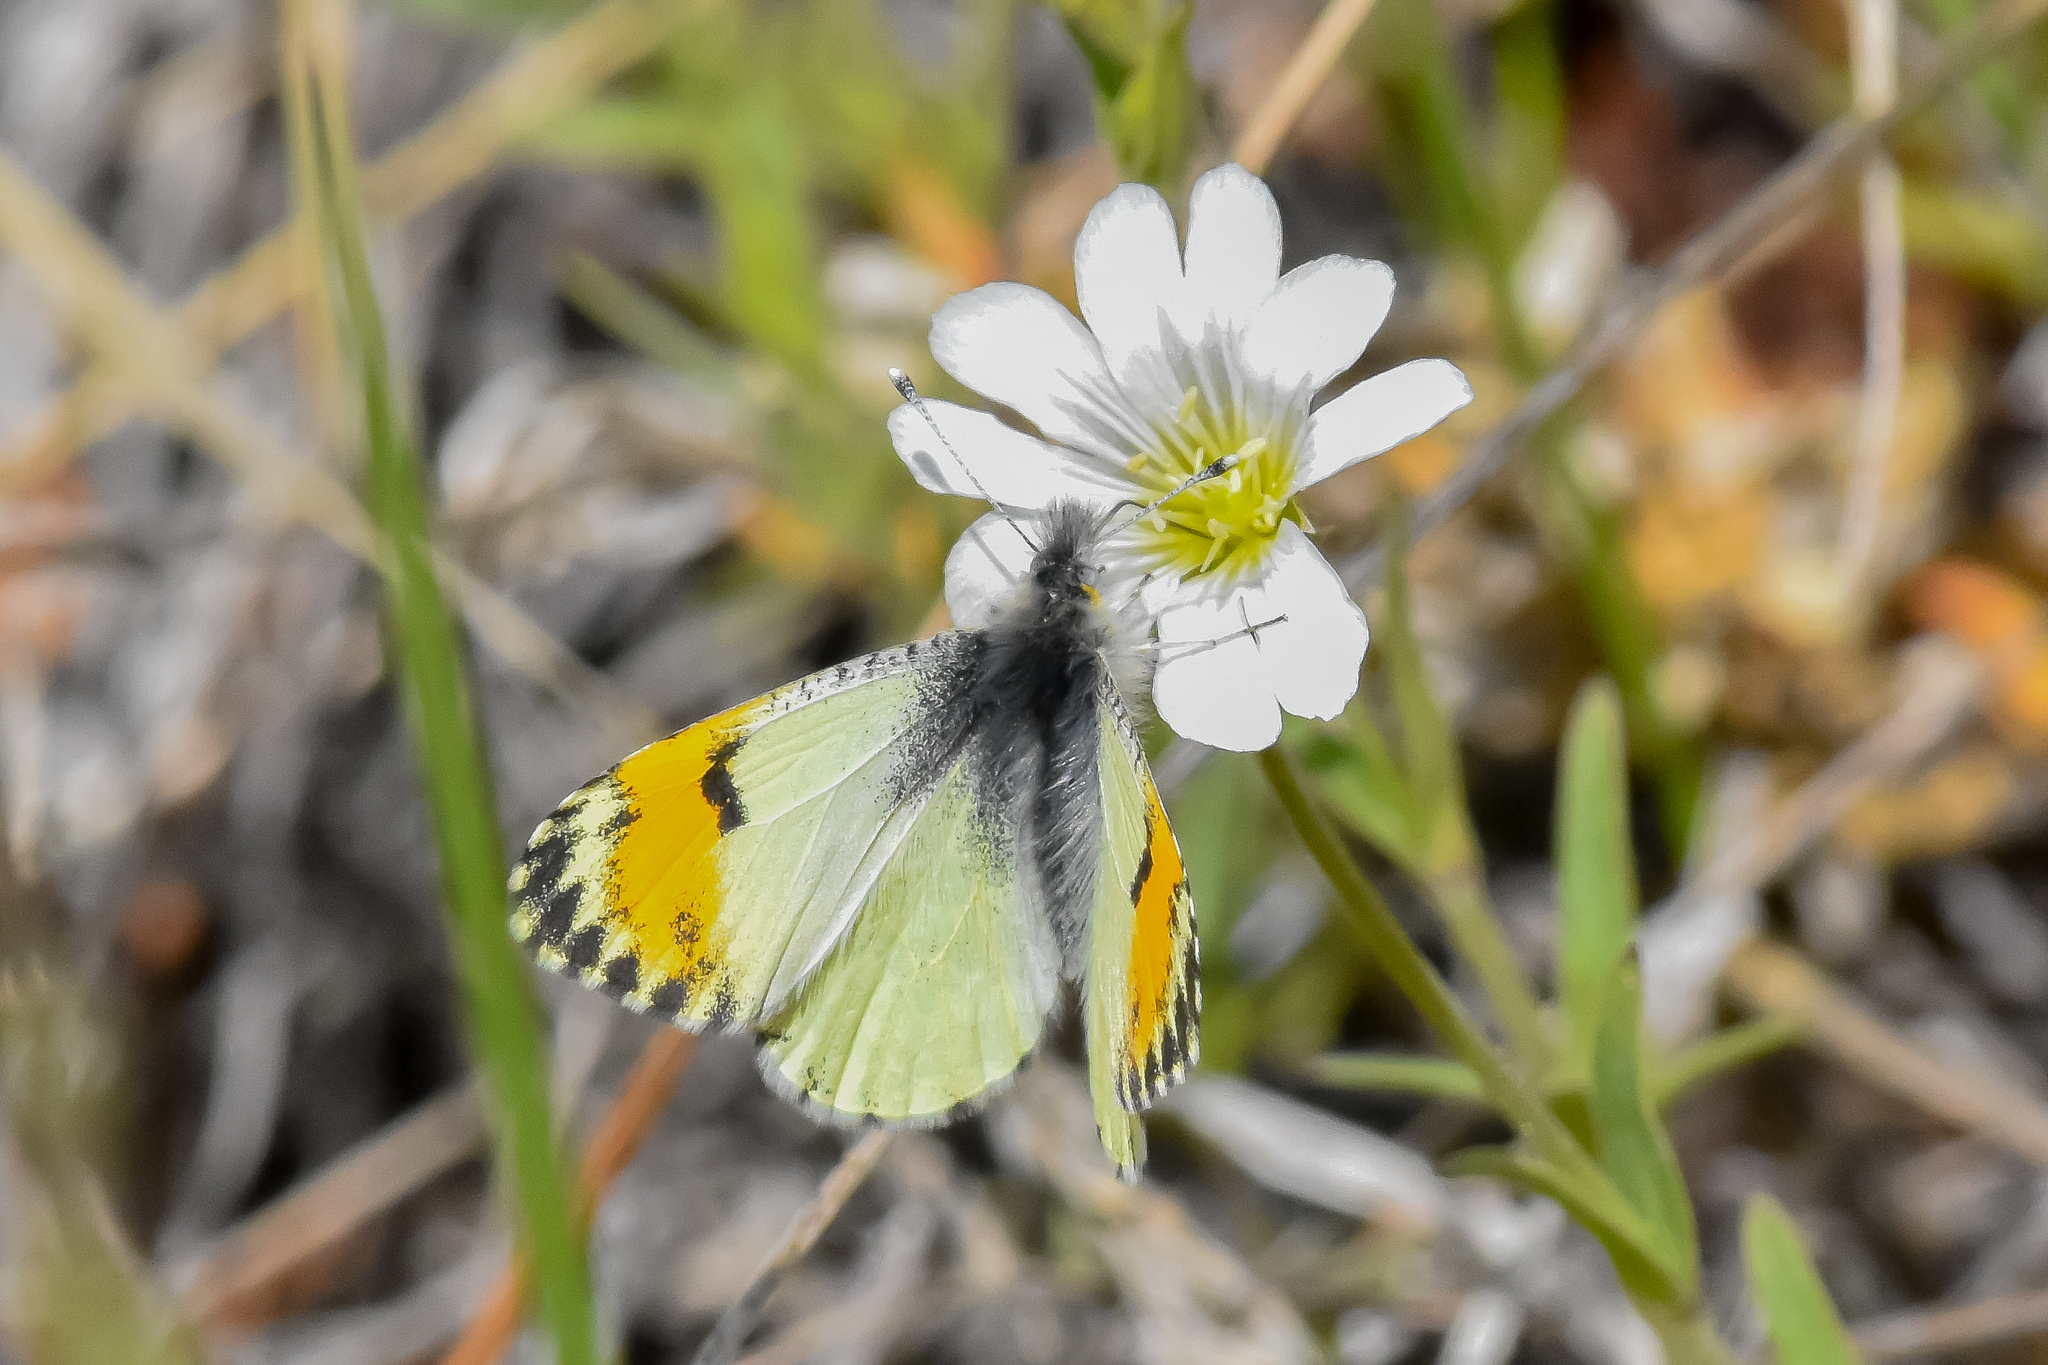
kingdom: Animalia
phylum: Arthropoda
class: Insecta
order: Lepidoptera
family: Pieridae
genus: Anthocharis
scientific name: Anthocharis julia
